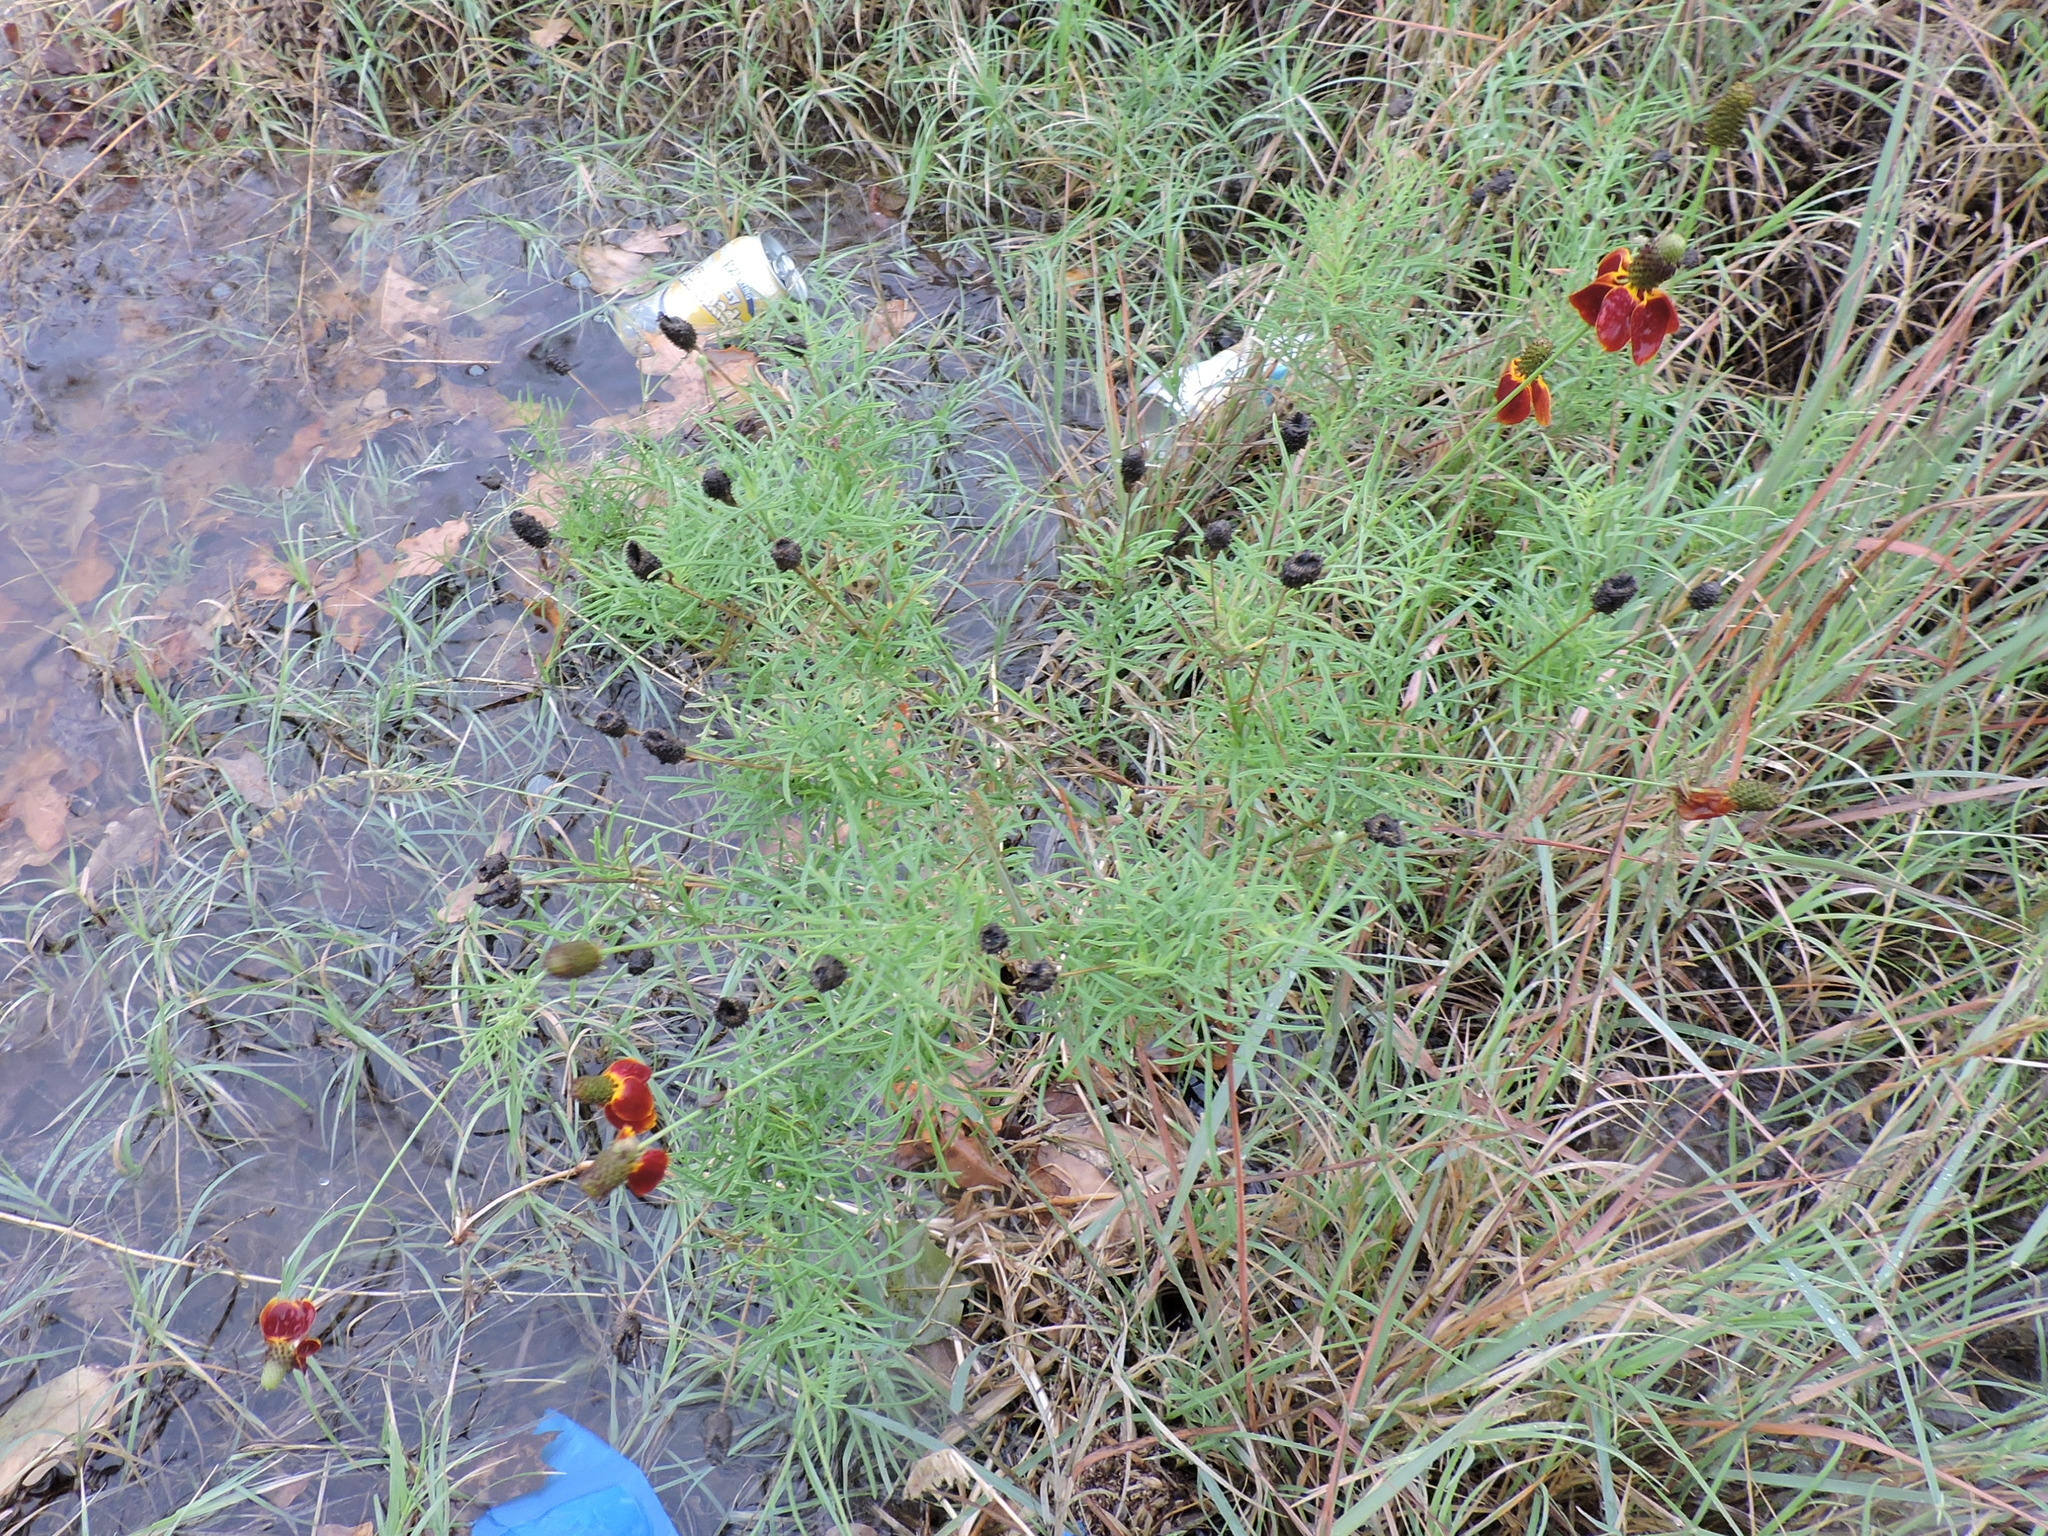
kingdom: Plantae
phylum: Tracheophyta
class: Magnoliopsida
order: Asterales
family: Asteraceae
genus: Ratibida
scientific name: Ratibida columnifera
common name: Prairie coneflower
